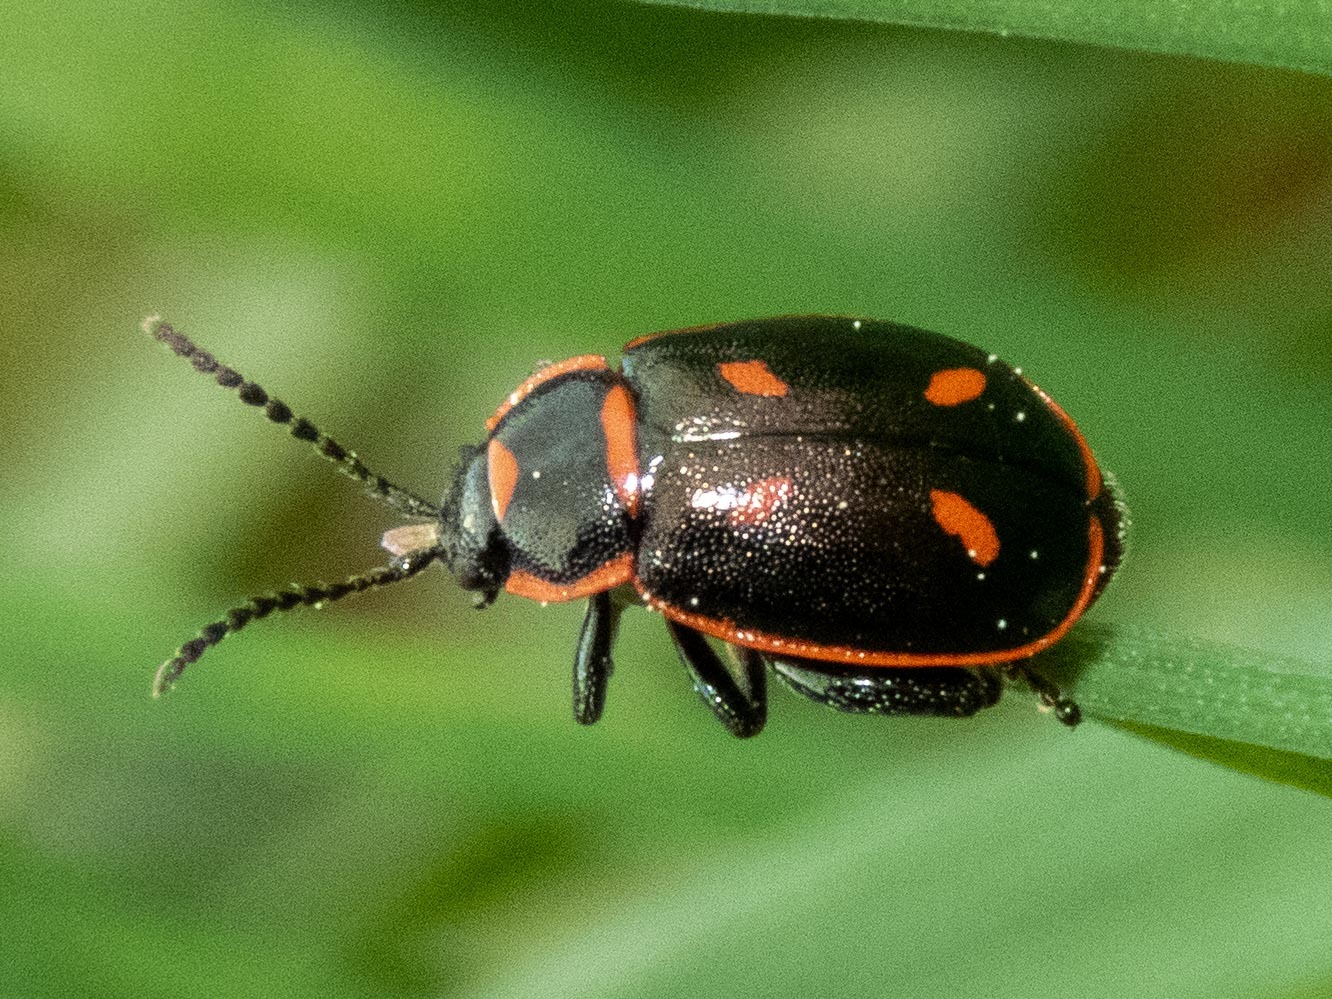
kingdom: Animalia
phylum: Arthropoda
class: Insecta
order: Coleoptera
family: Chrysomelidae
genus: Oedionychis
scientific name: Oedionychis cincta
